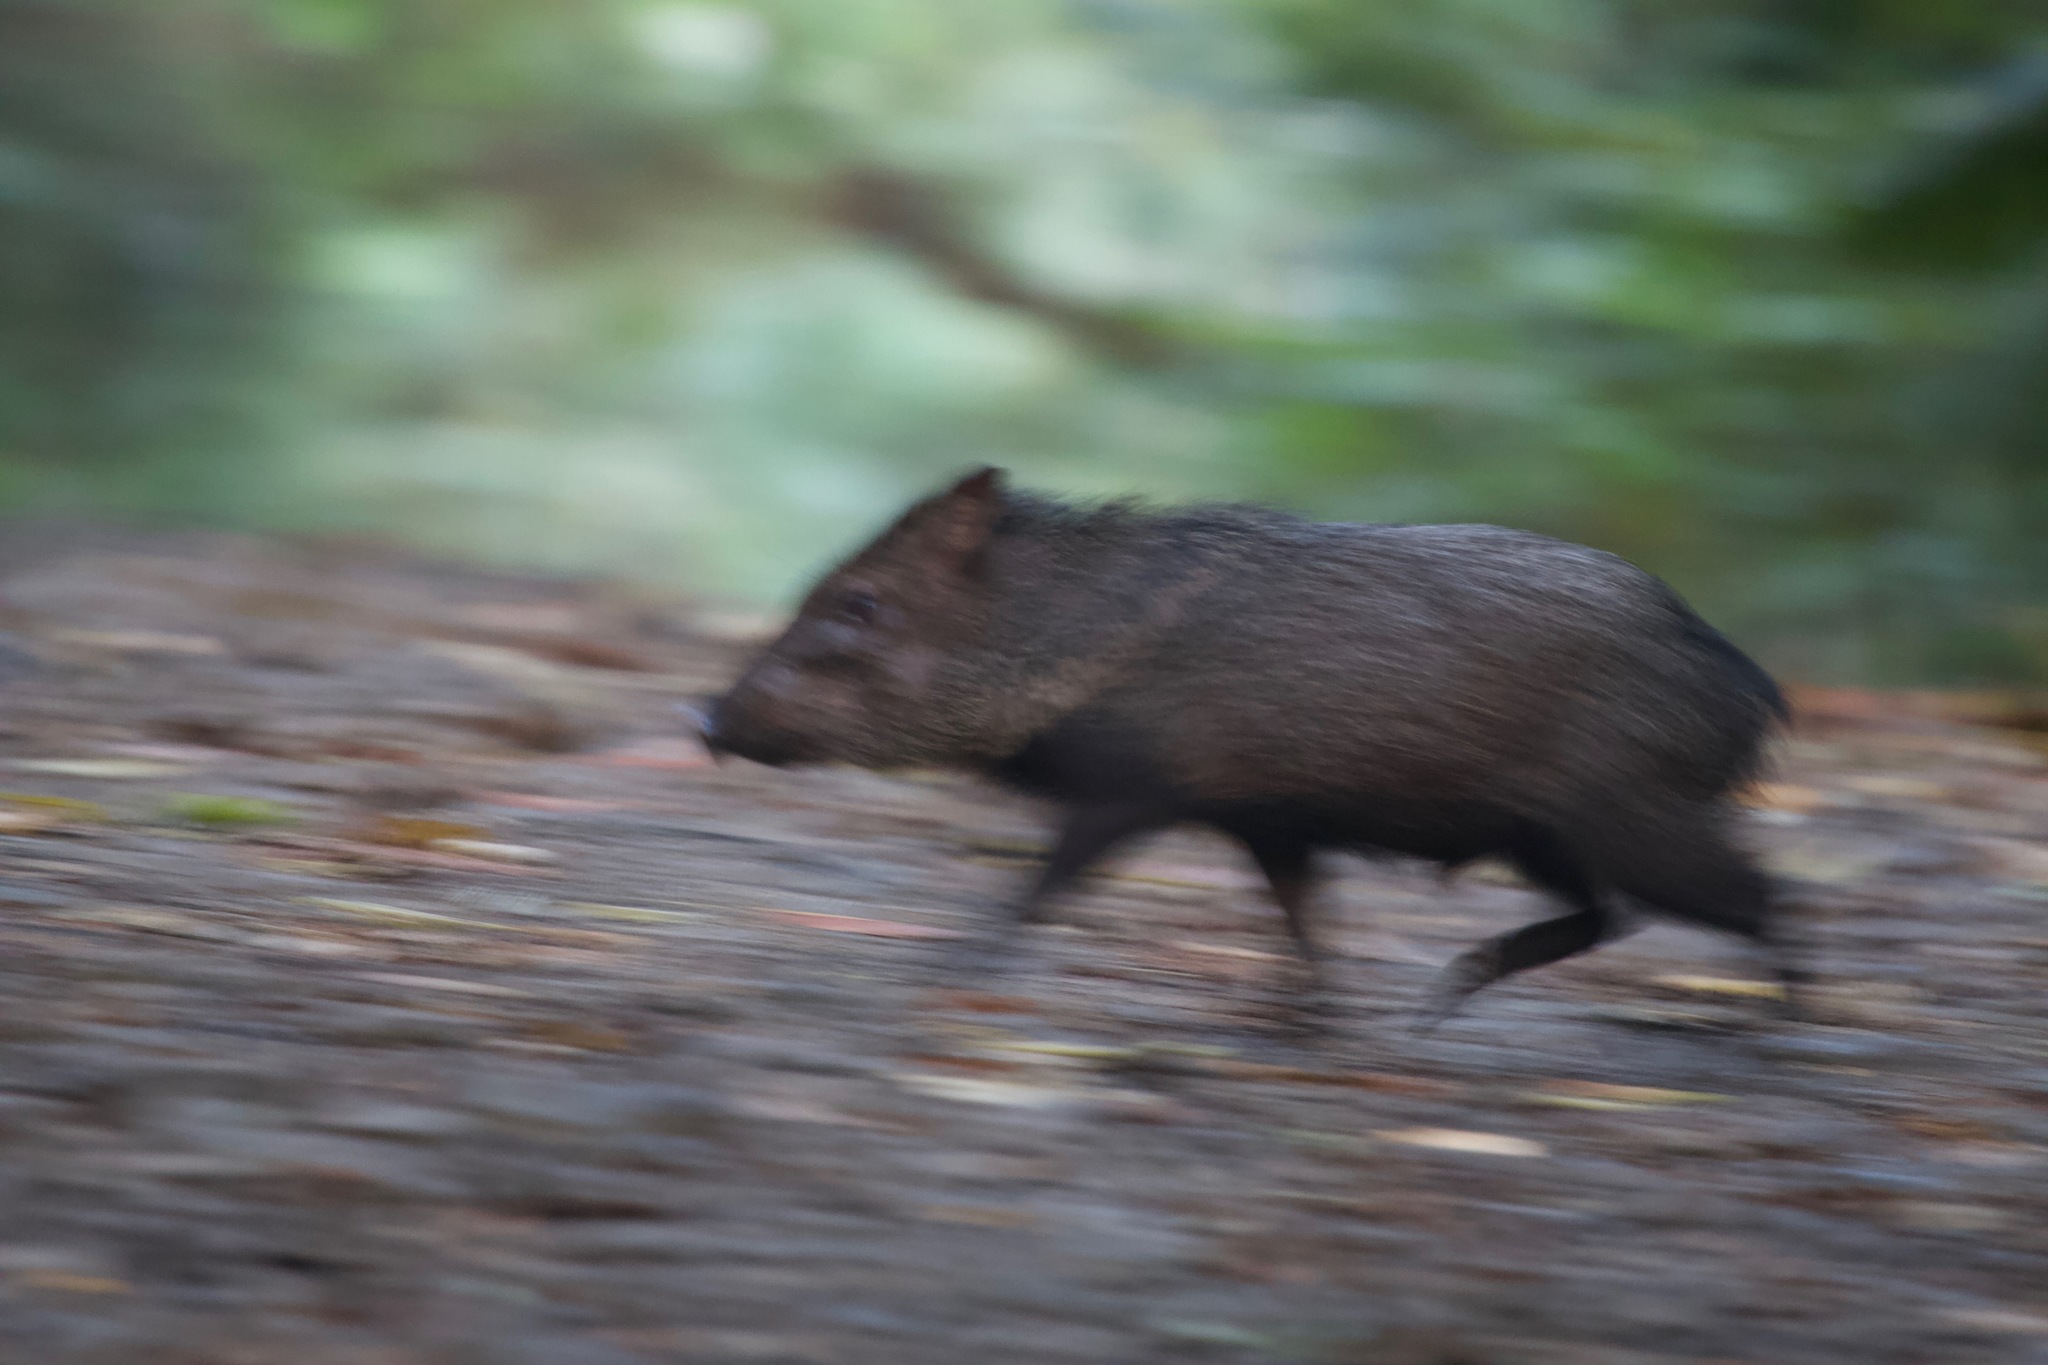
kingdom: Animalia
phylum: Chordata
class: Mammalia
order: Artiodactyla
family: Tayassuidae
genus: Pecari
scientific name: Pecari tajacu
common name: Collared peccary
